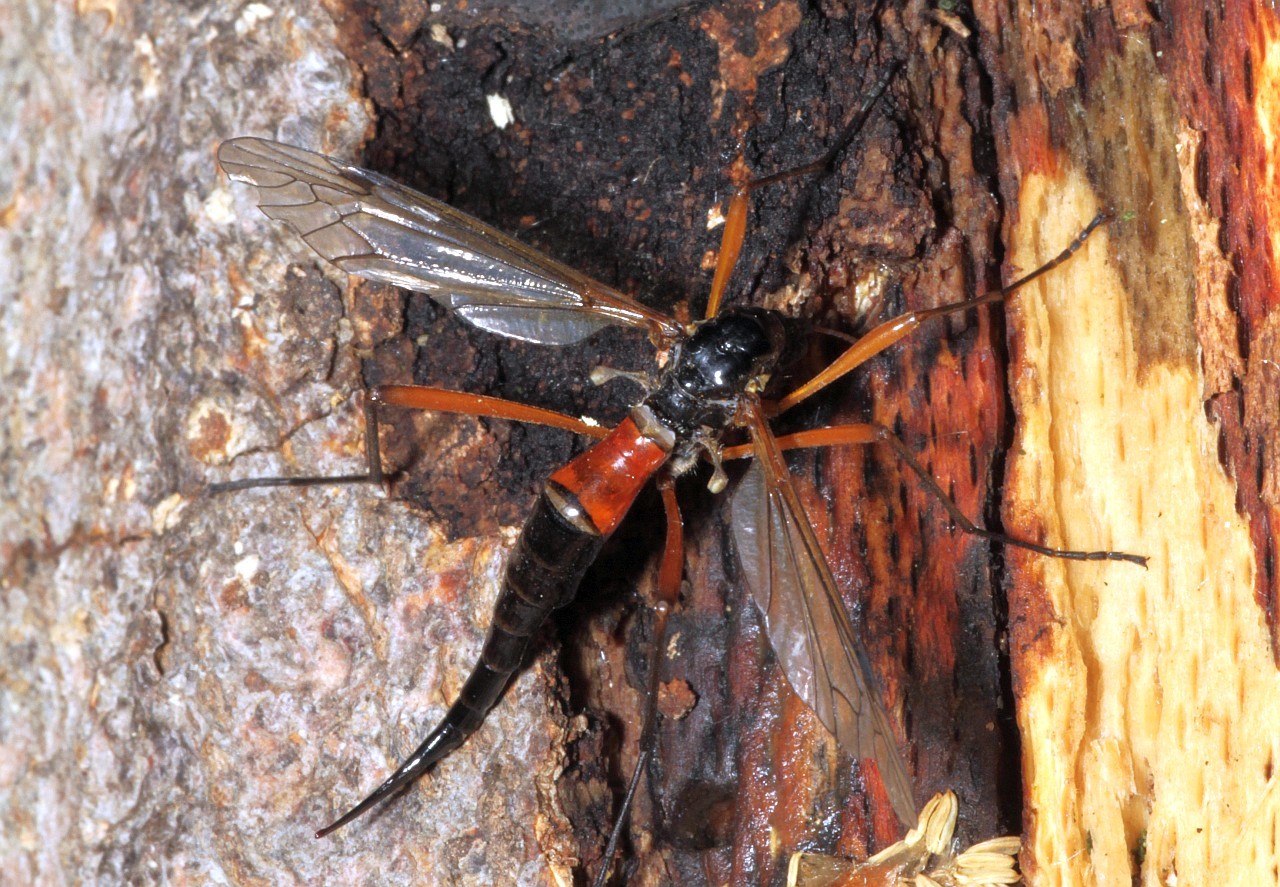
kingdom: Animalia
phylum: Arthropoda
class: Insecta
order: Diptera
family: Tipulidae
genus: Tanyptera
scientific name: Tanyptera atrata
